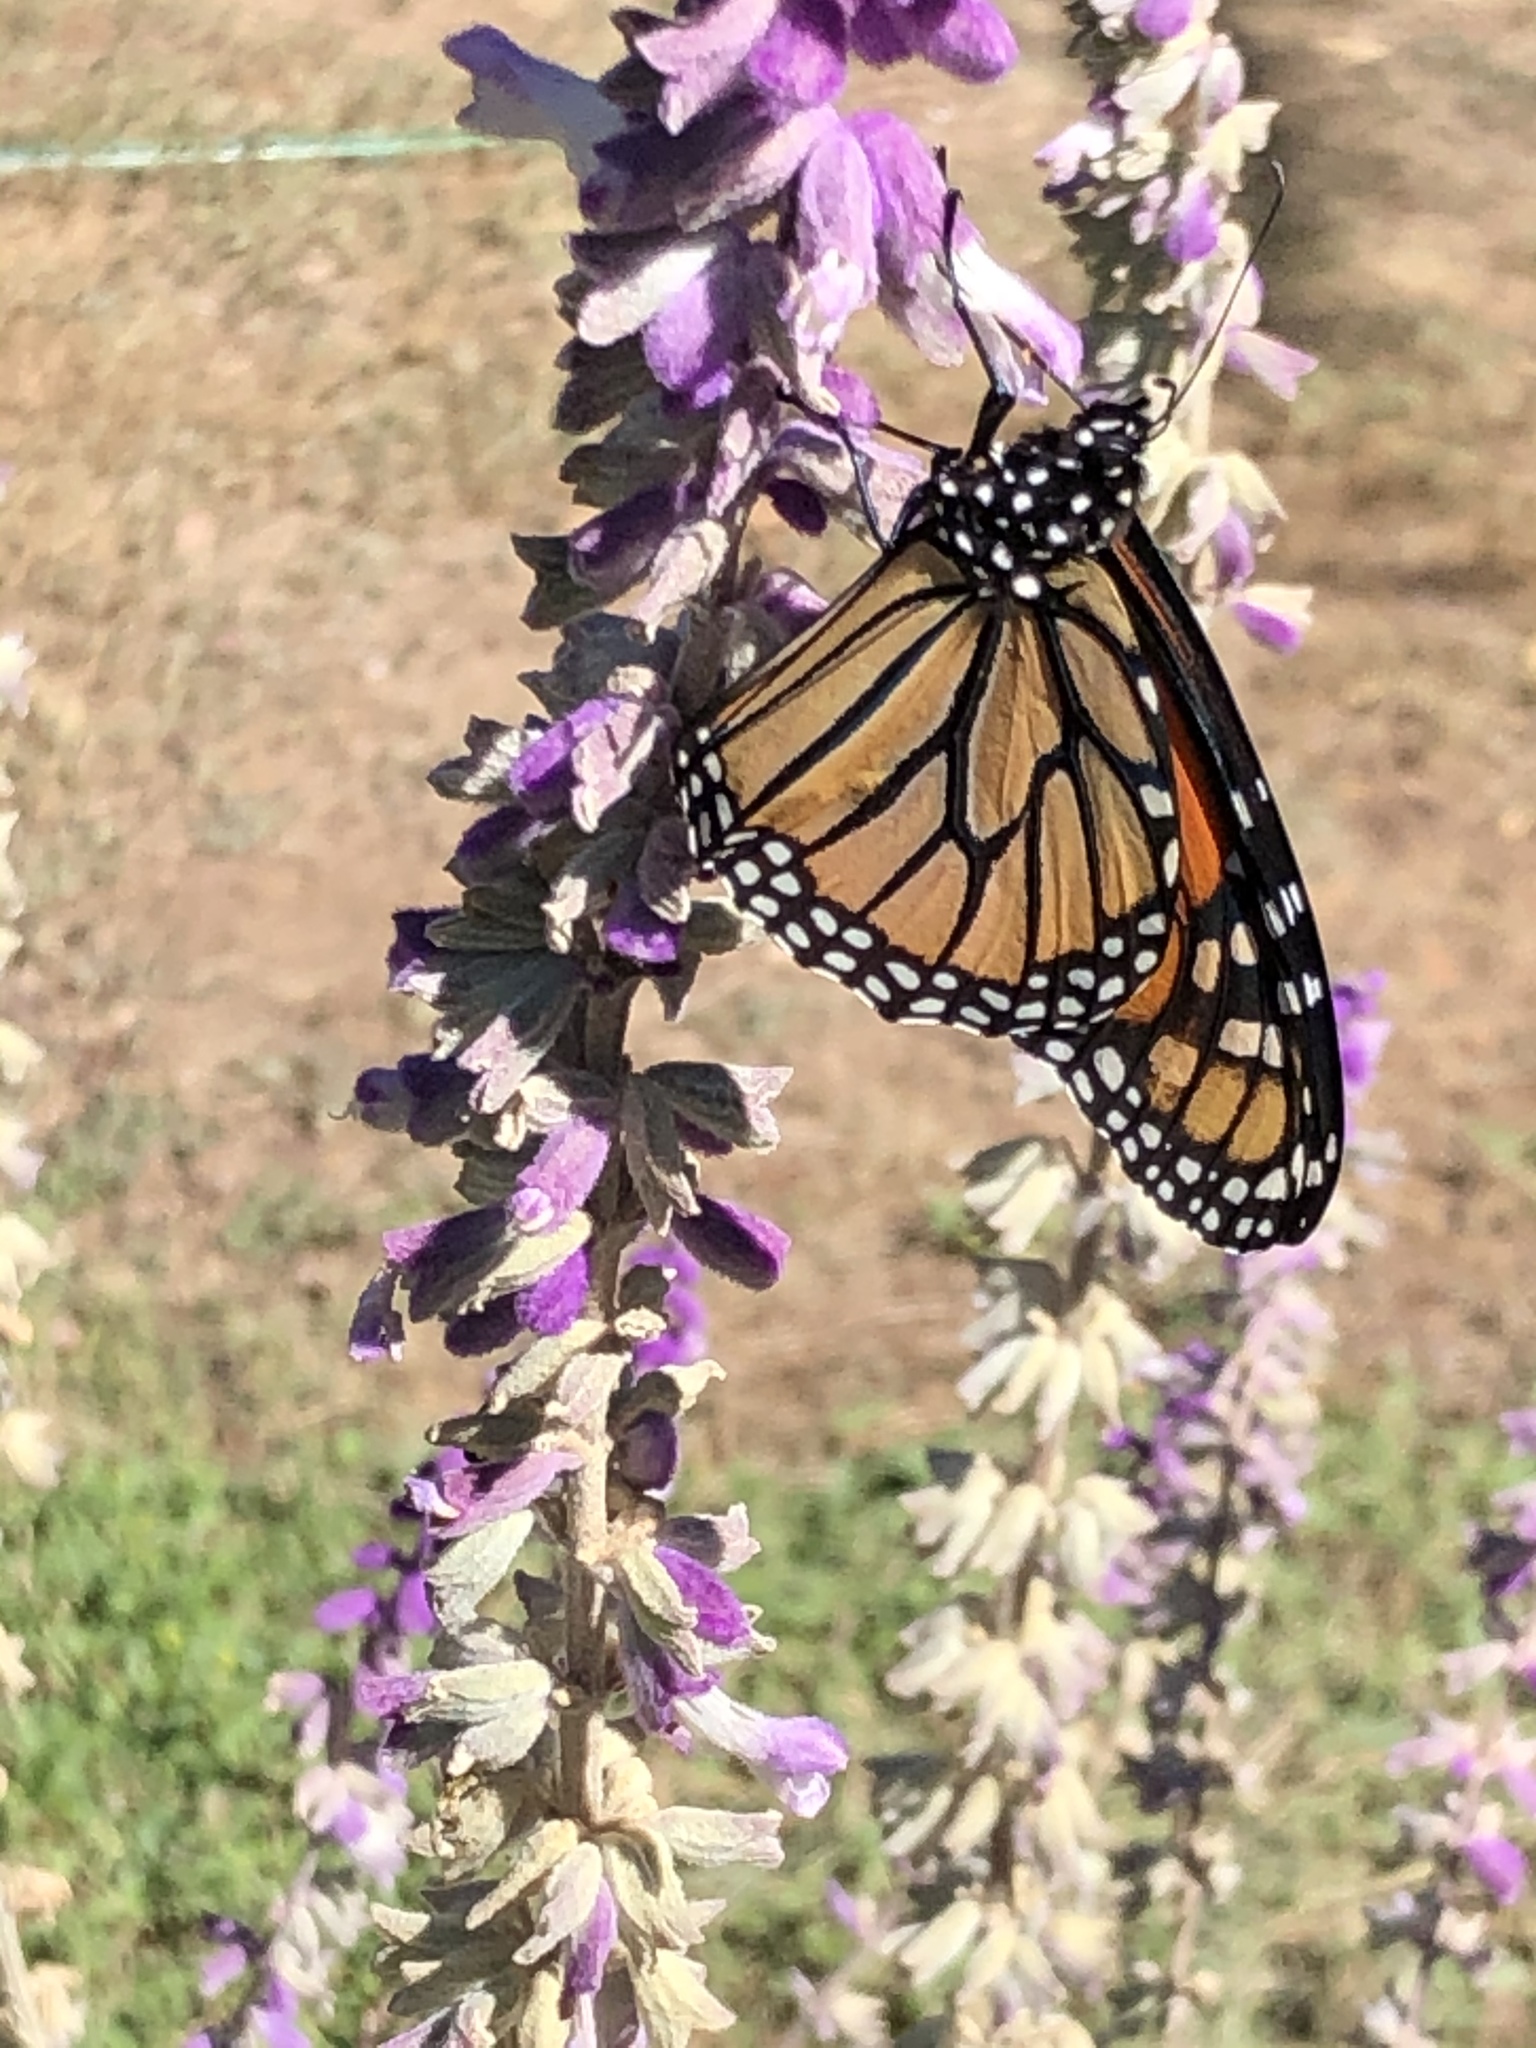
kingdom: Animalia
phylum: Arthropoda
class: Insecta
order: Lepidoptera
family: Nymphalidae
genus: Danaus
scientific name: Danaus plexippus
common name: Monarch
